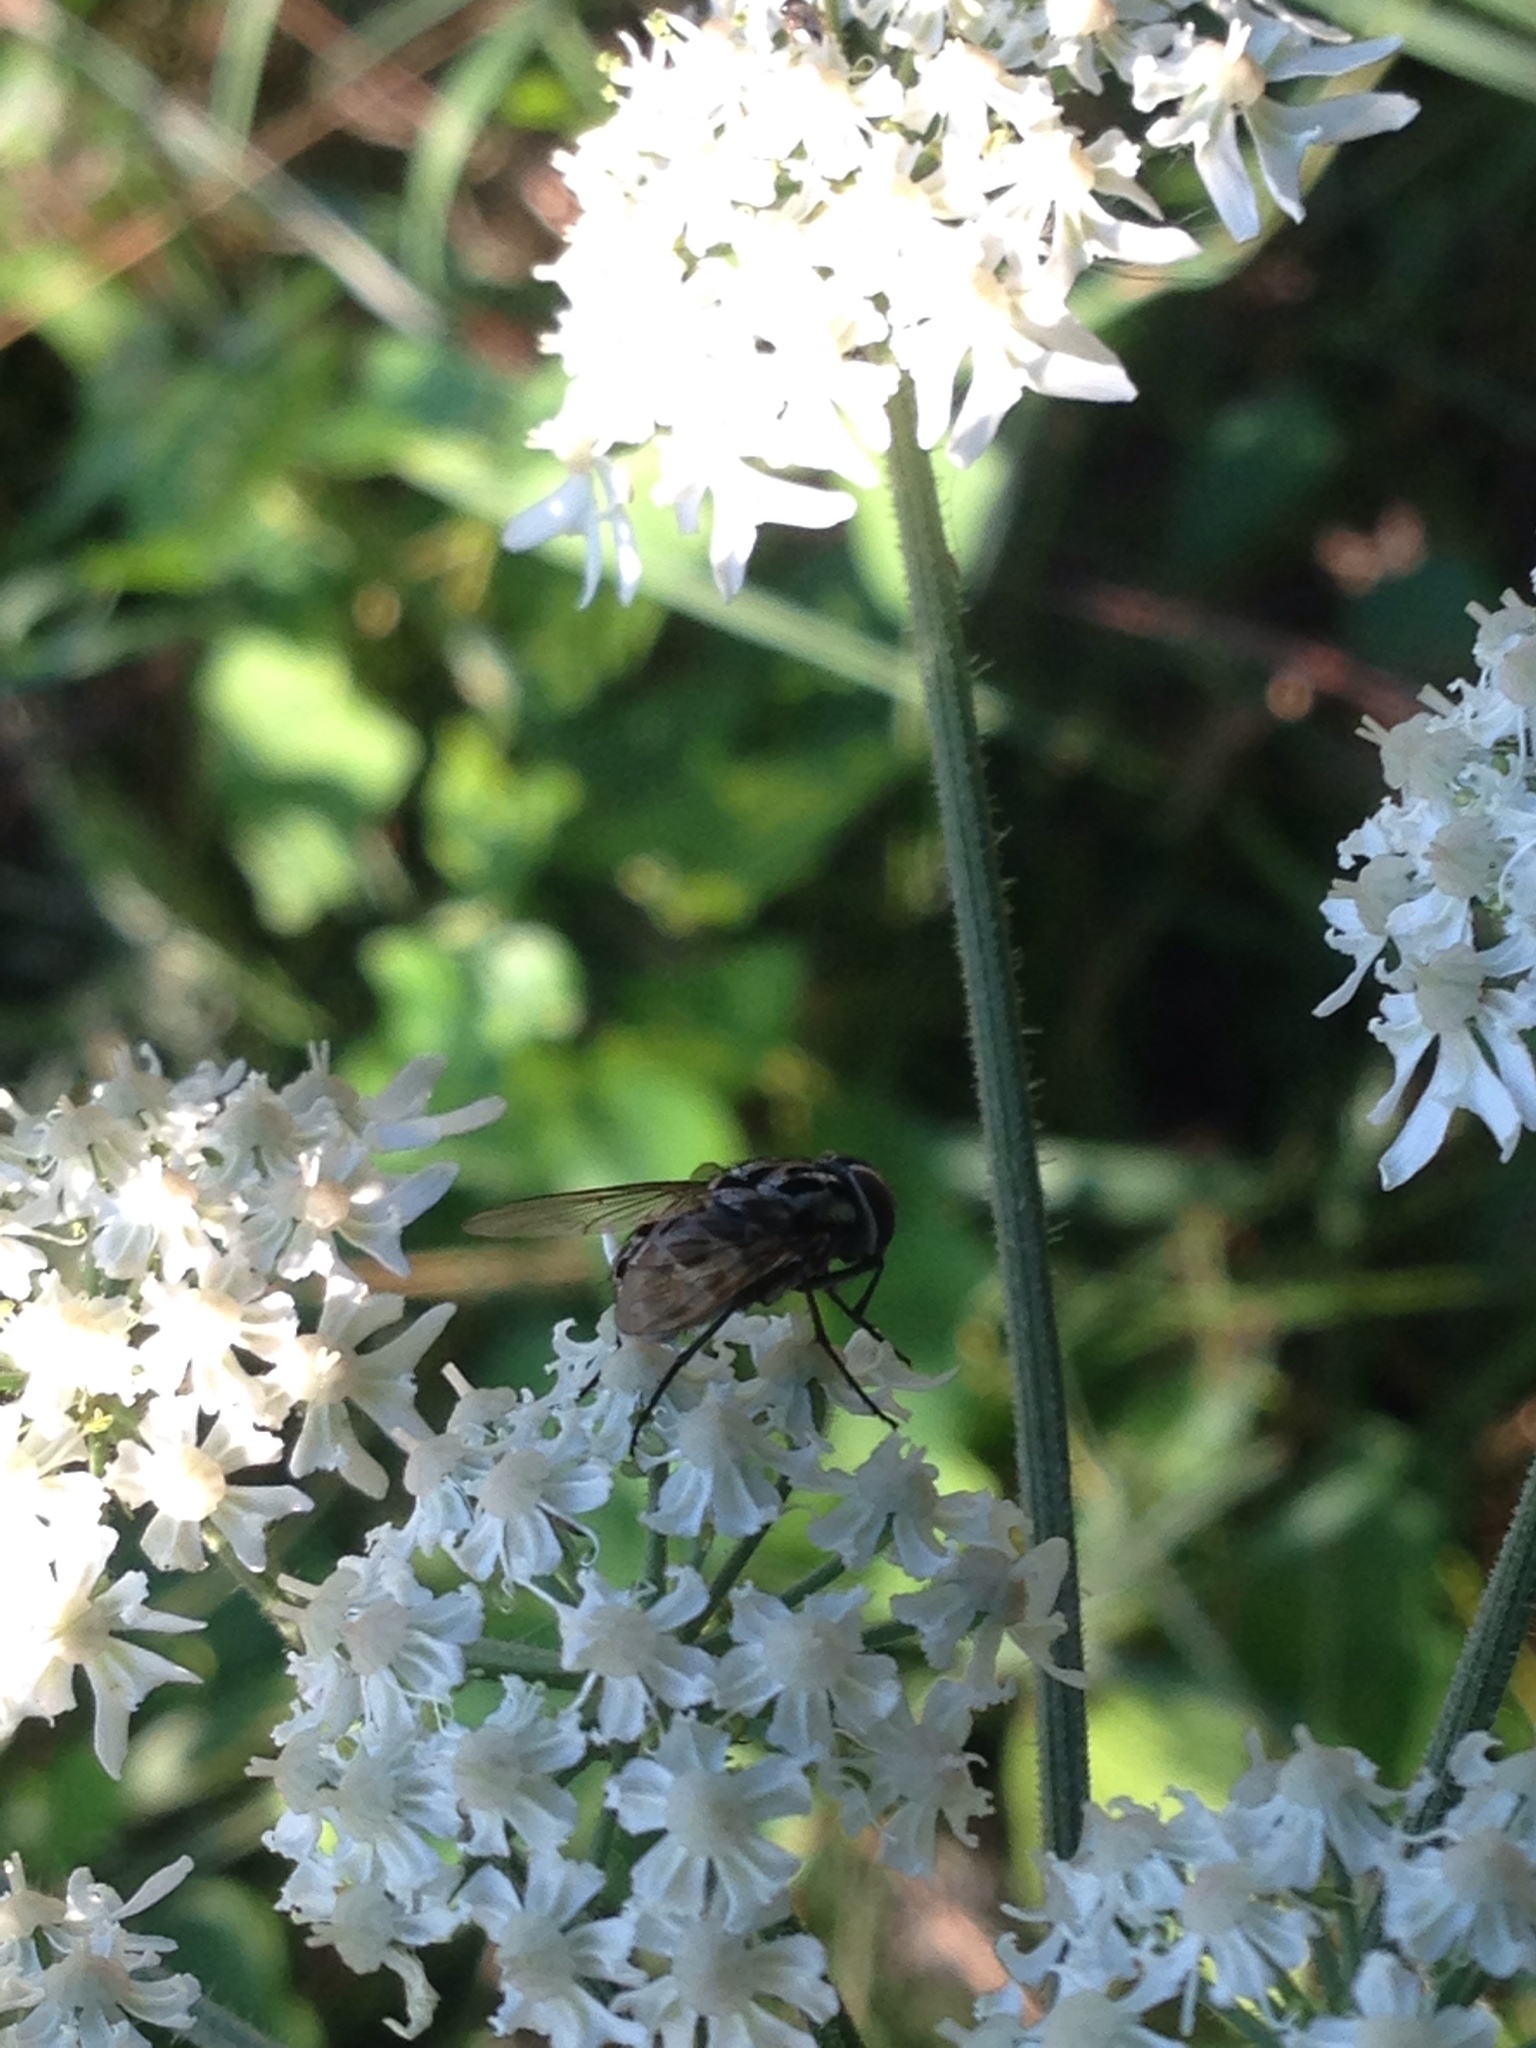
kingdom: Animalia
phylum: Arthropoda
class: Insecta
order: Diptera
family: Muscidae
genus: Graphomya
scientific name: Graphomya
